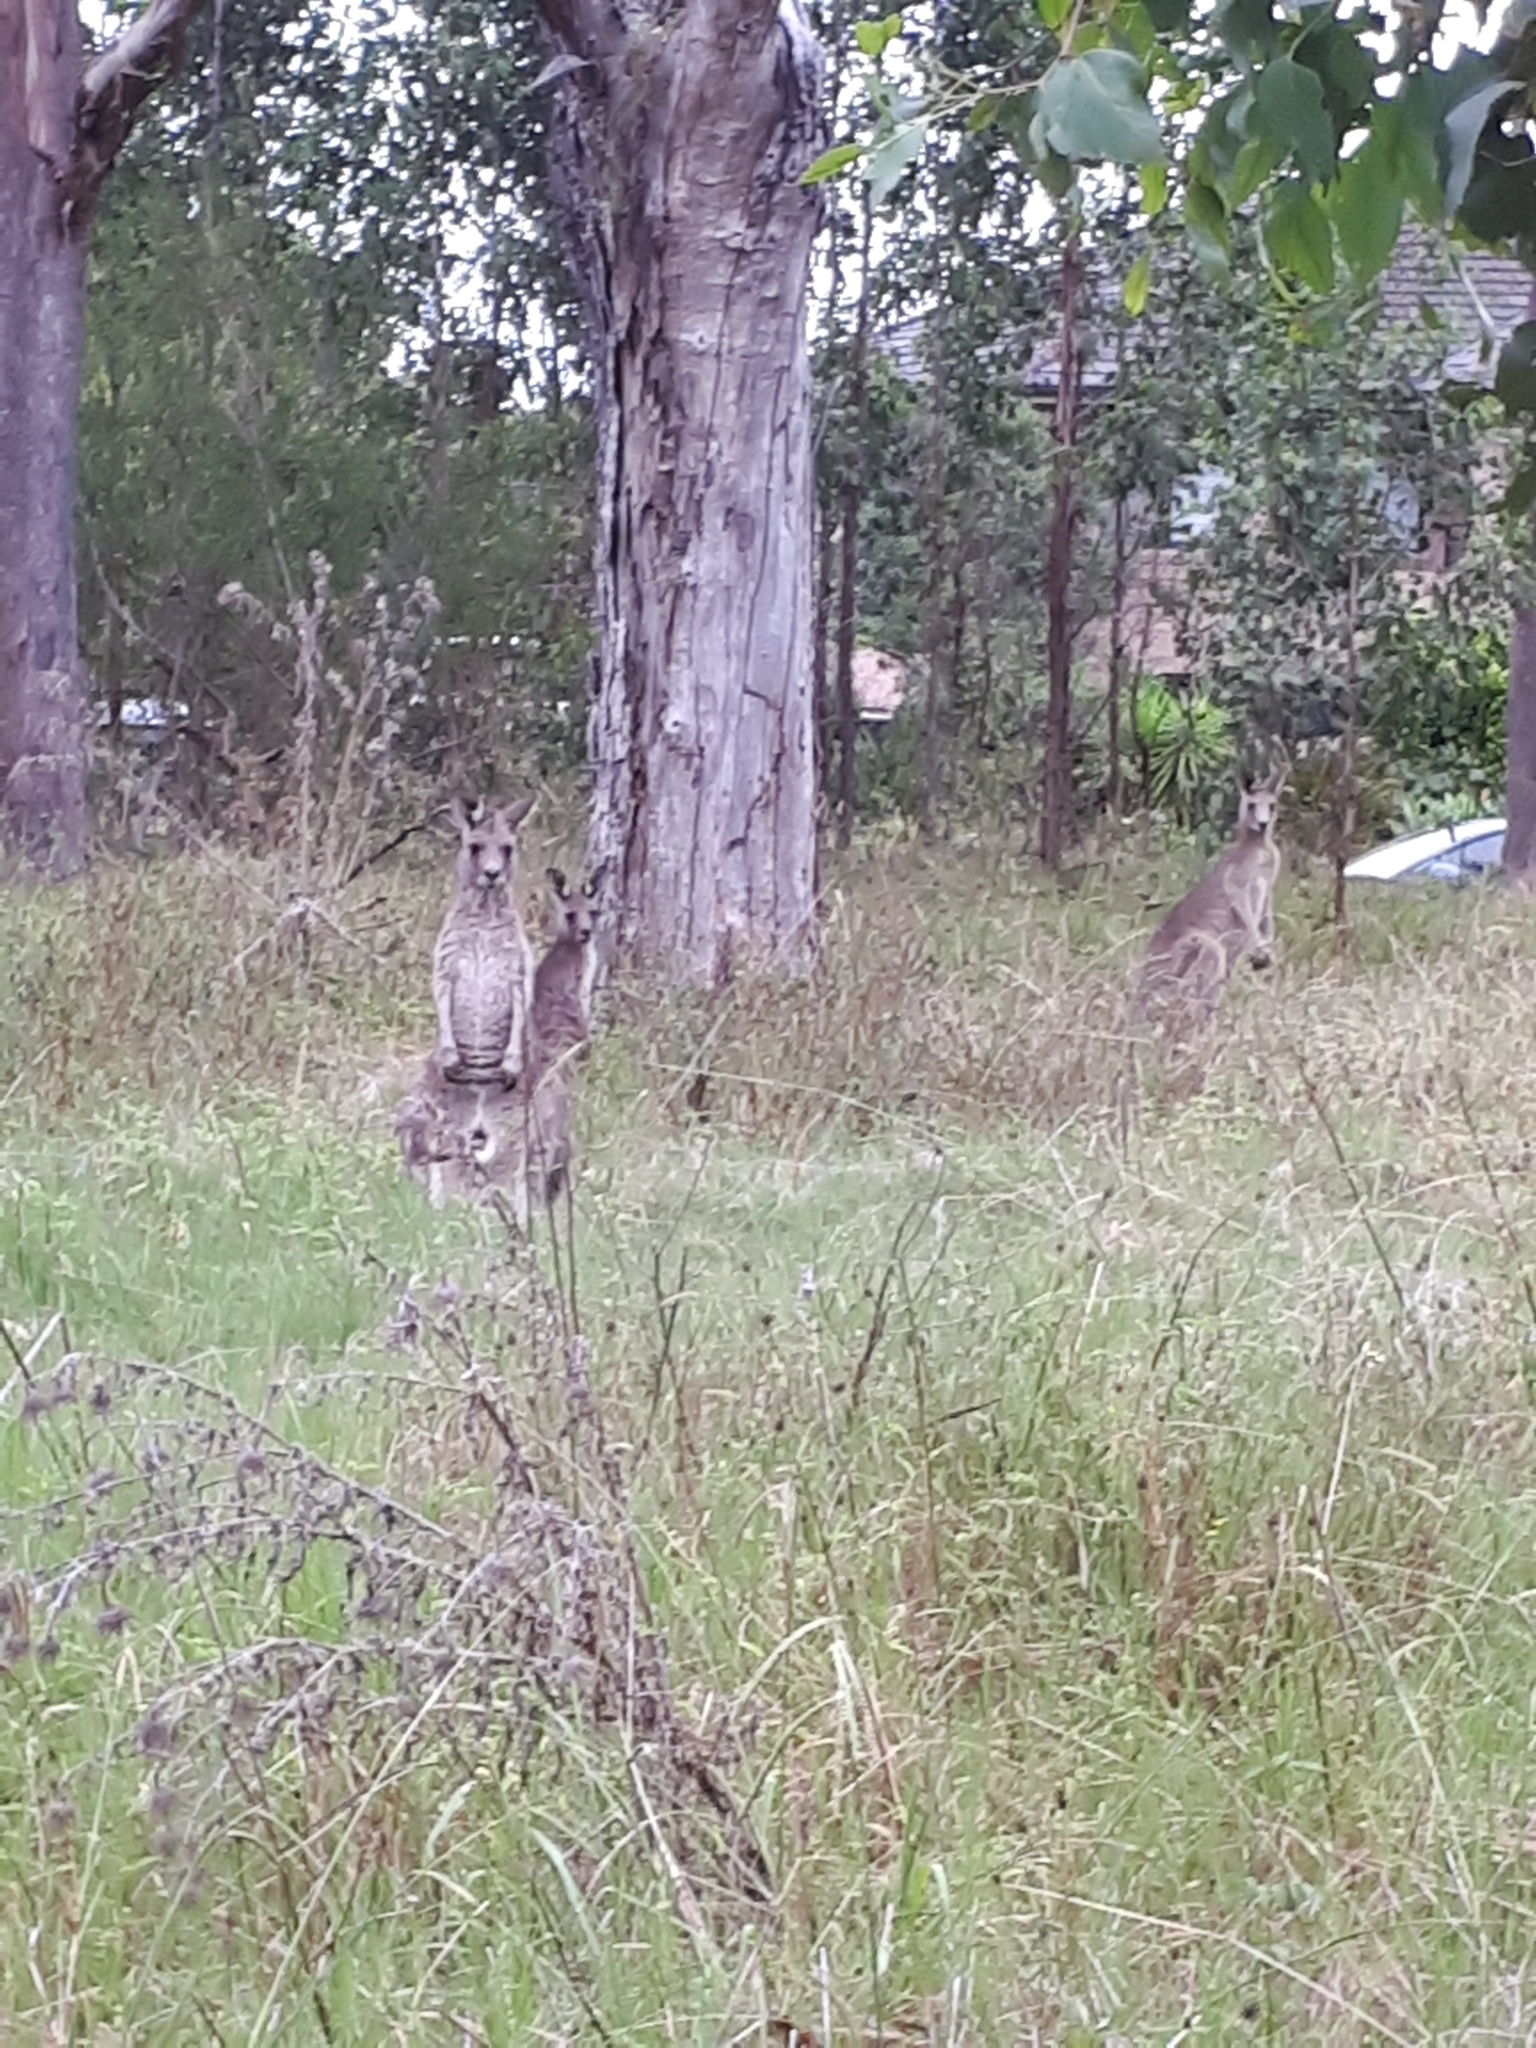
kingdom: Animalia
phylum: Chordata
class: Mammalia
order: Diprotodontia
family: Macropodidae
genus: Macropus
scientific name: Macropus giganteus
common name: Eastern grey kangaroo
